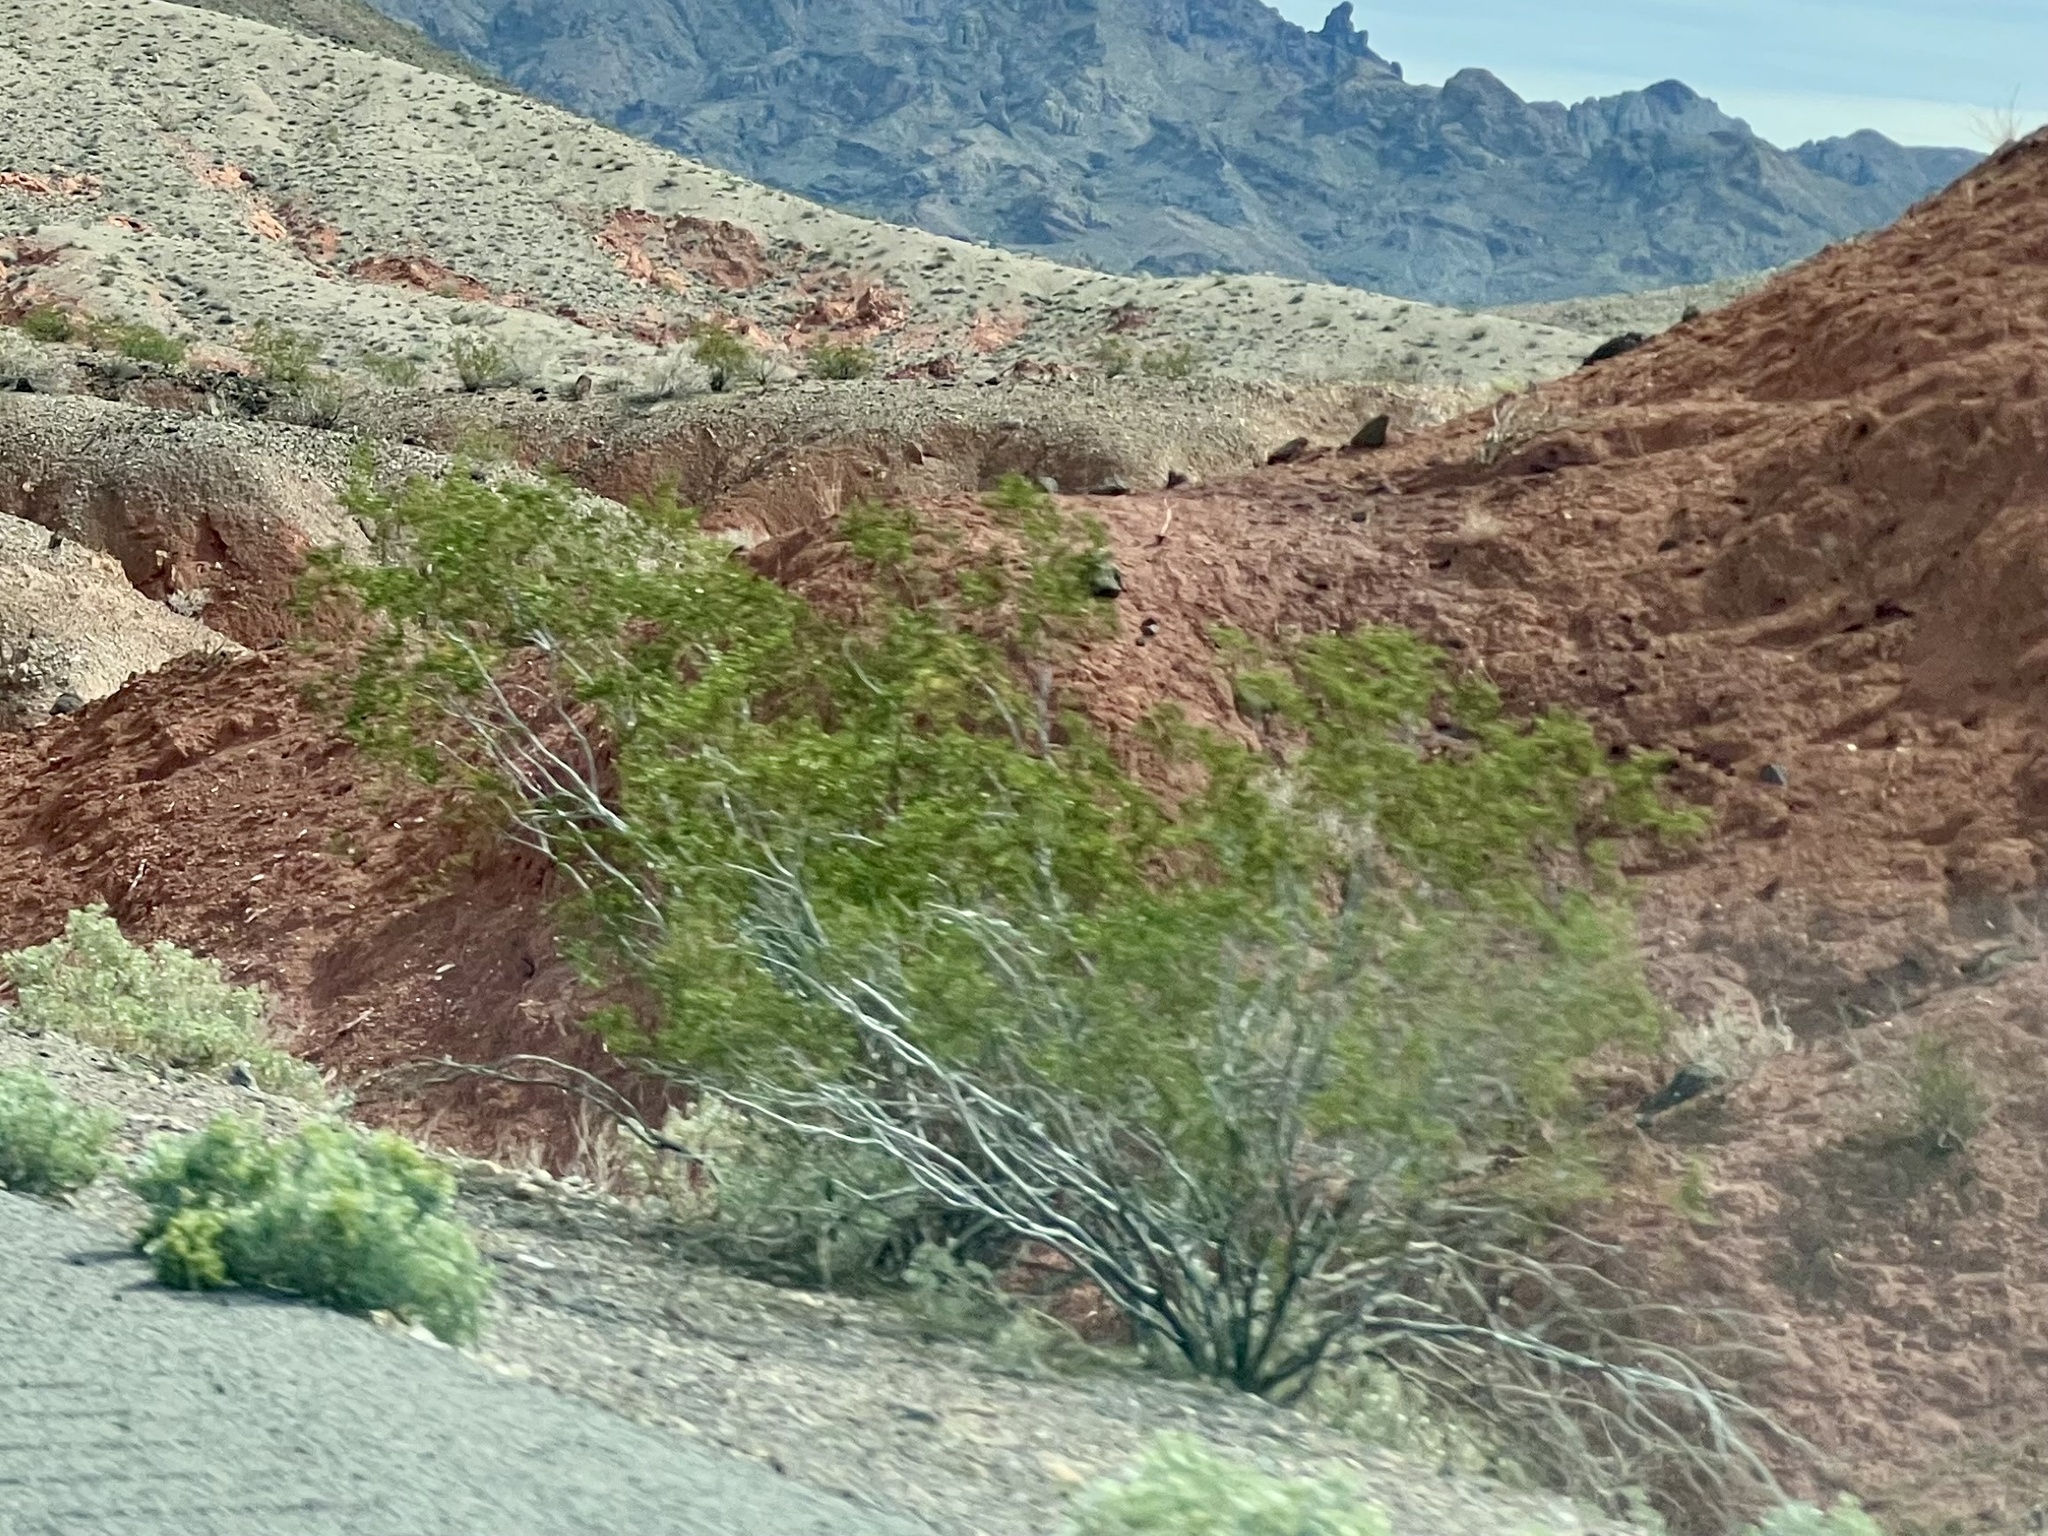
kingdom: Plantae
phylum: Tracheophyta
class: Magnoliopsida
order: Zygophyllales
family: Zygophyllaceae
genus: Larrea
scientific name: Larrea tridentata
